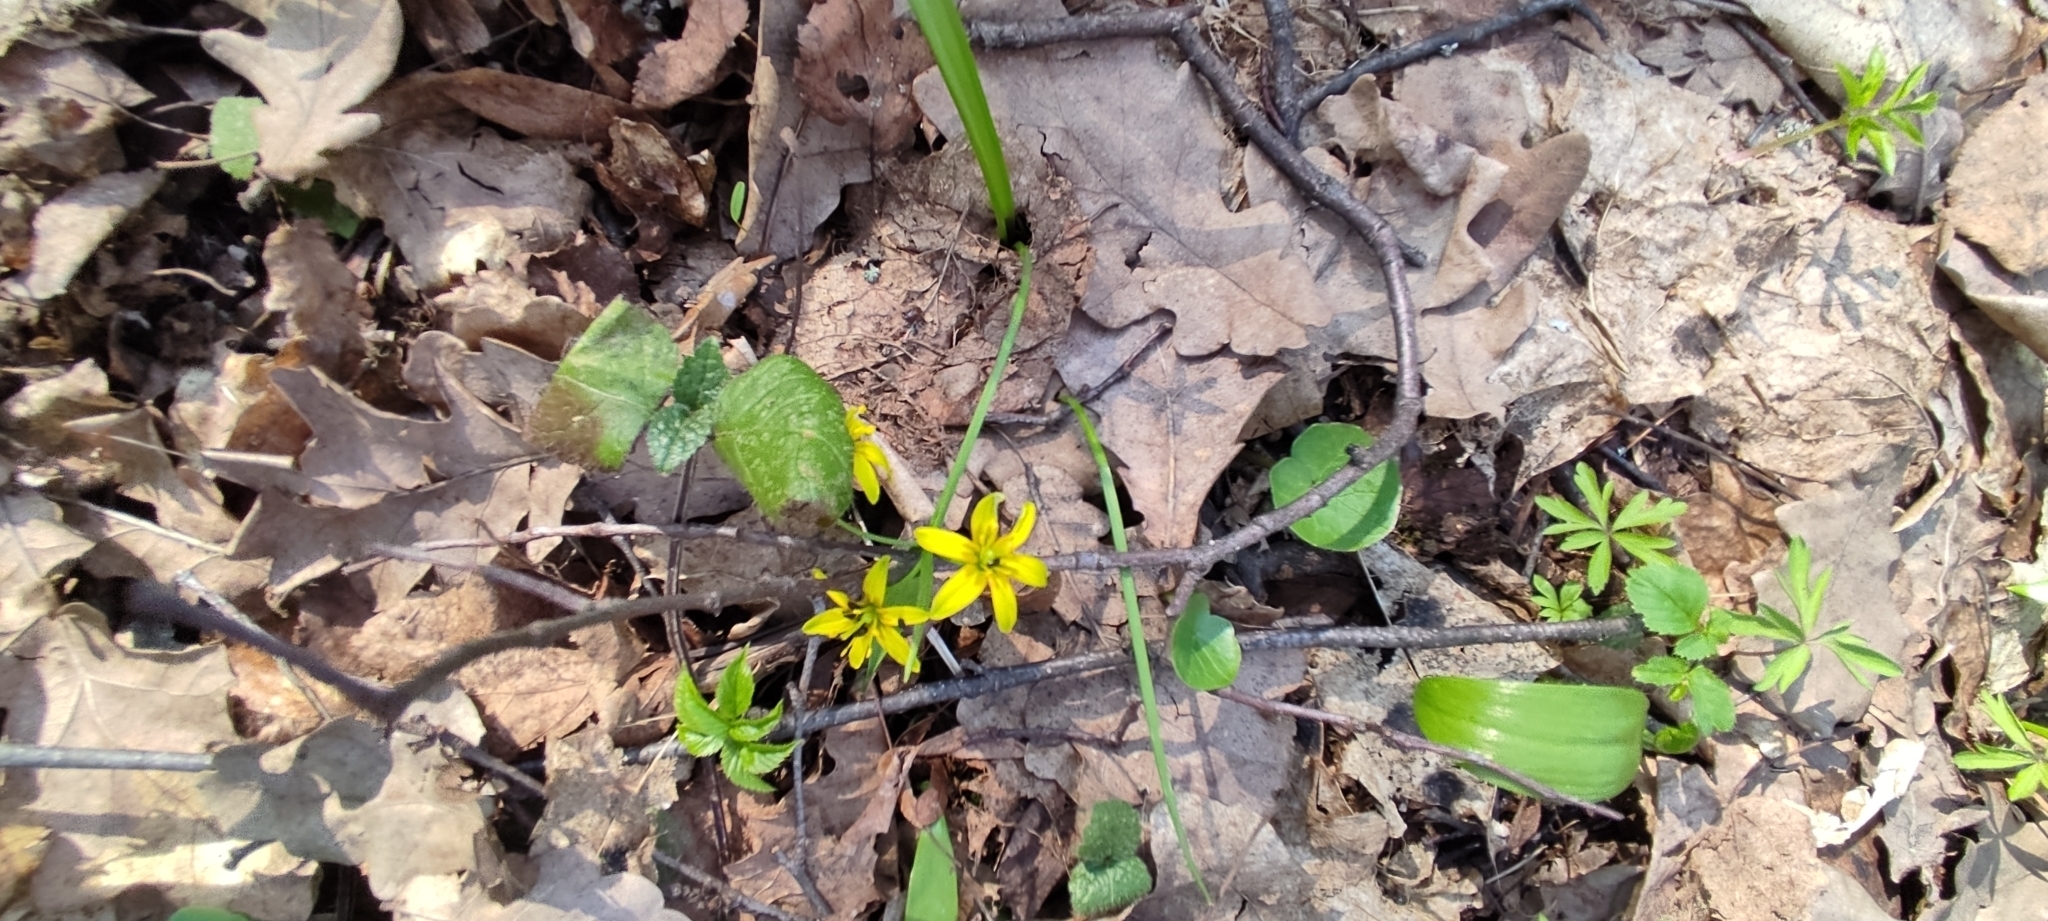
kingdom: Plantae
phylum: Tracheophyta
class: Liliopsida
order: Liliales
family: Liliaceae
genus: Gagea
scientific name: Gagea lutea
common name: Yellow star-of-bethlehem
